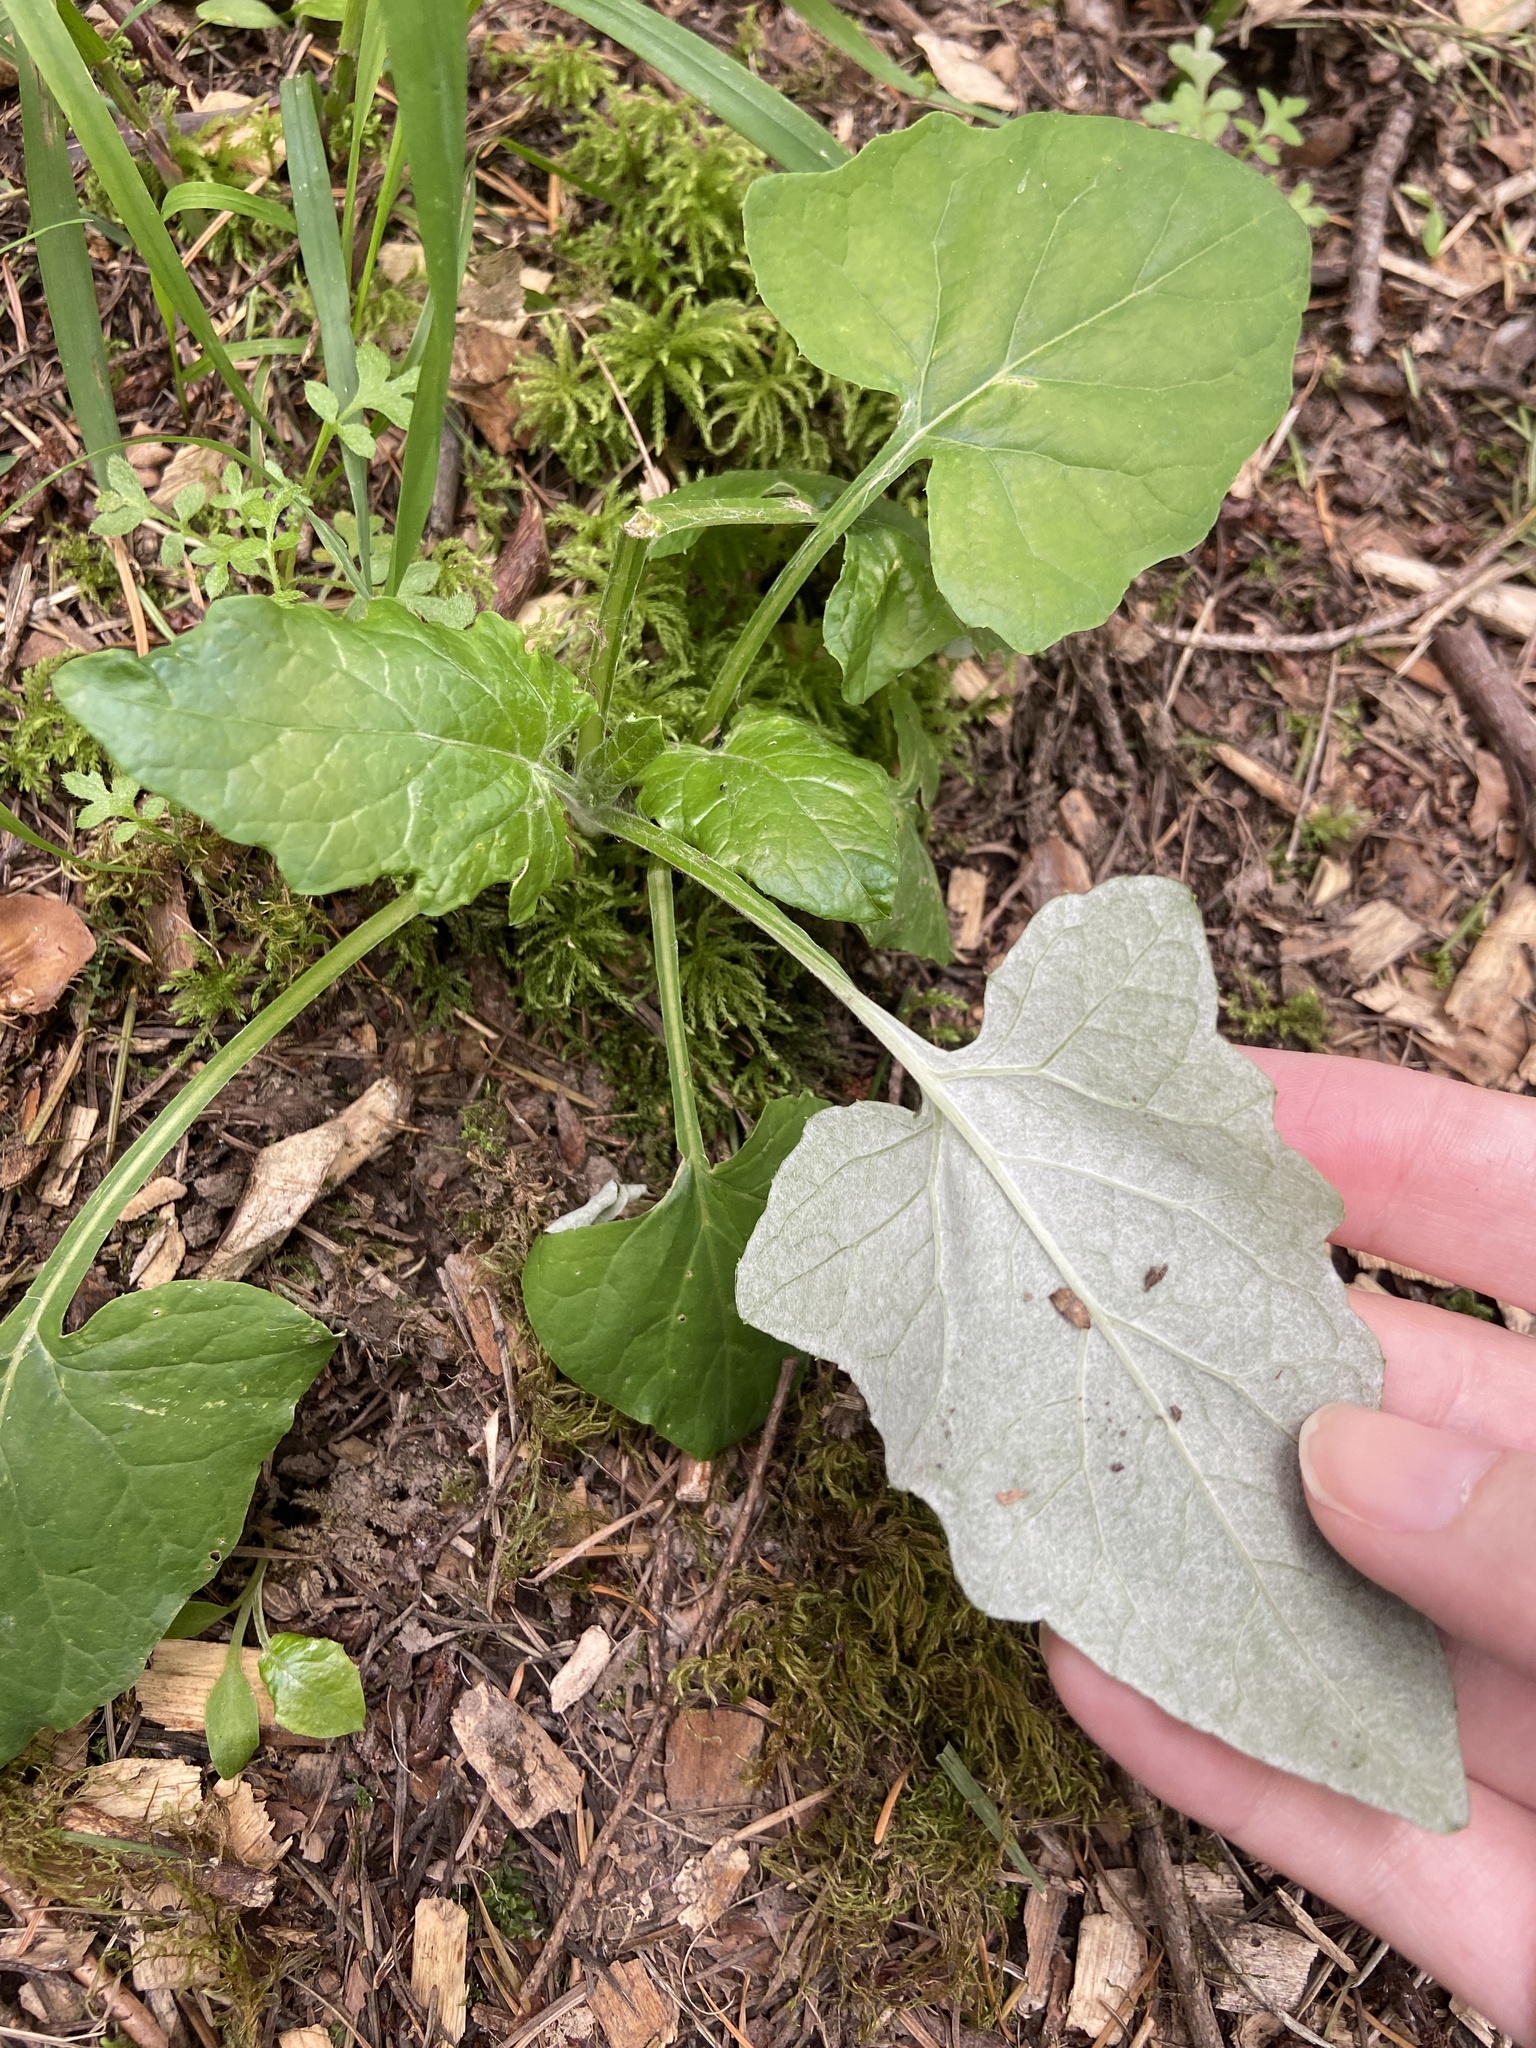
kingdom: Plantae
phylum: Tracheophyta
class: Magnoliopsida
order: Asterales
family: Asteraceae
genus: Adenocaulon
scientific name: Adenocaulon bicolor
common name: Trailplant
